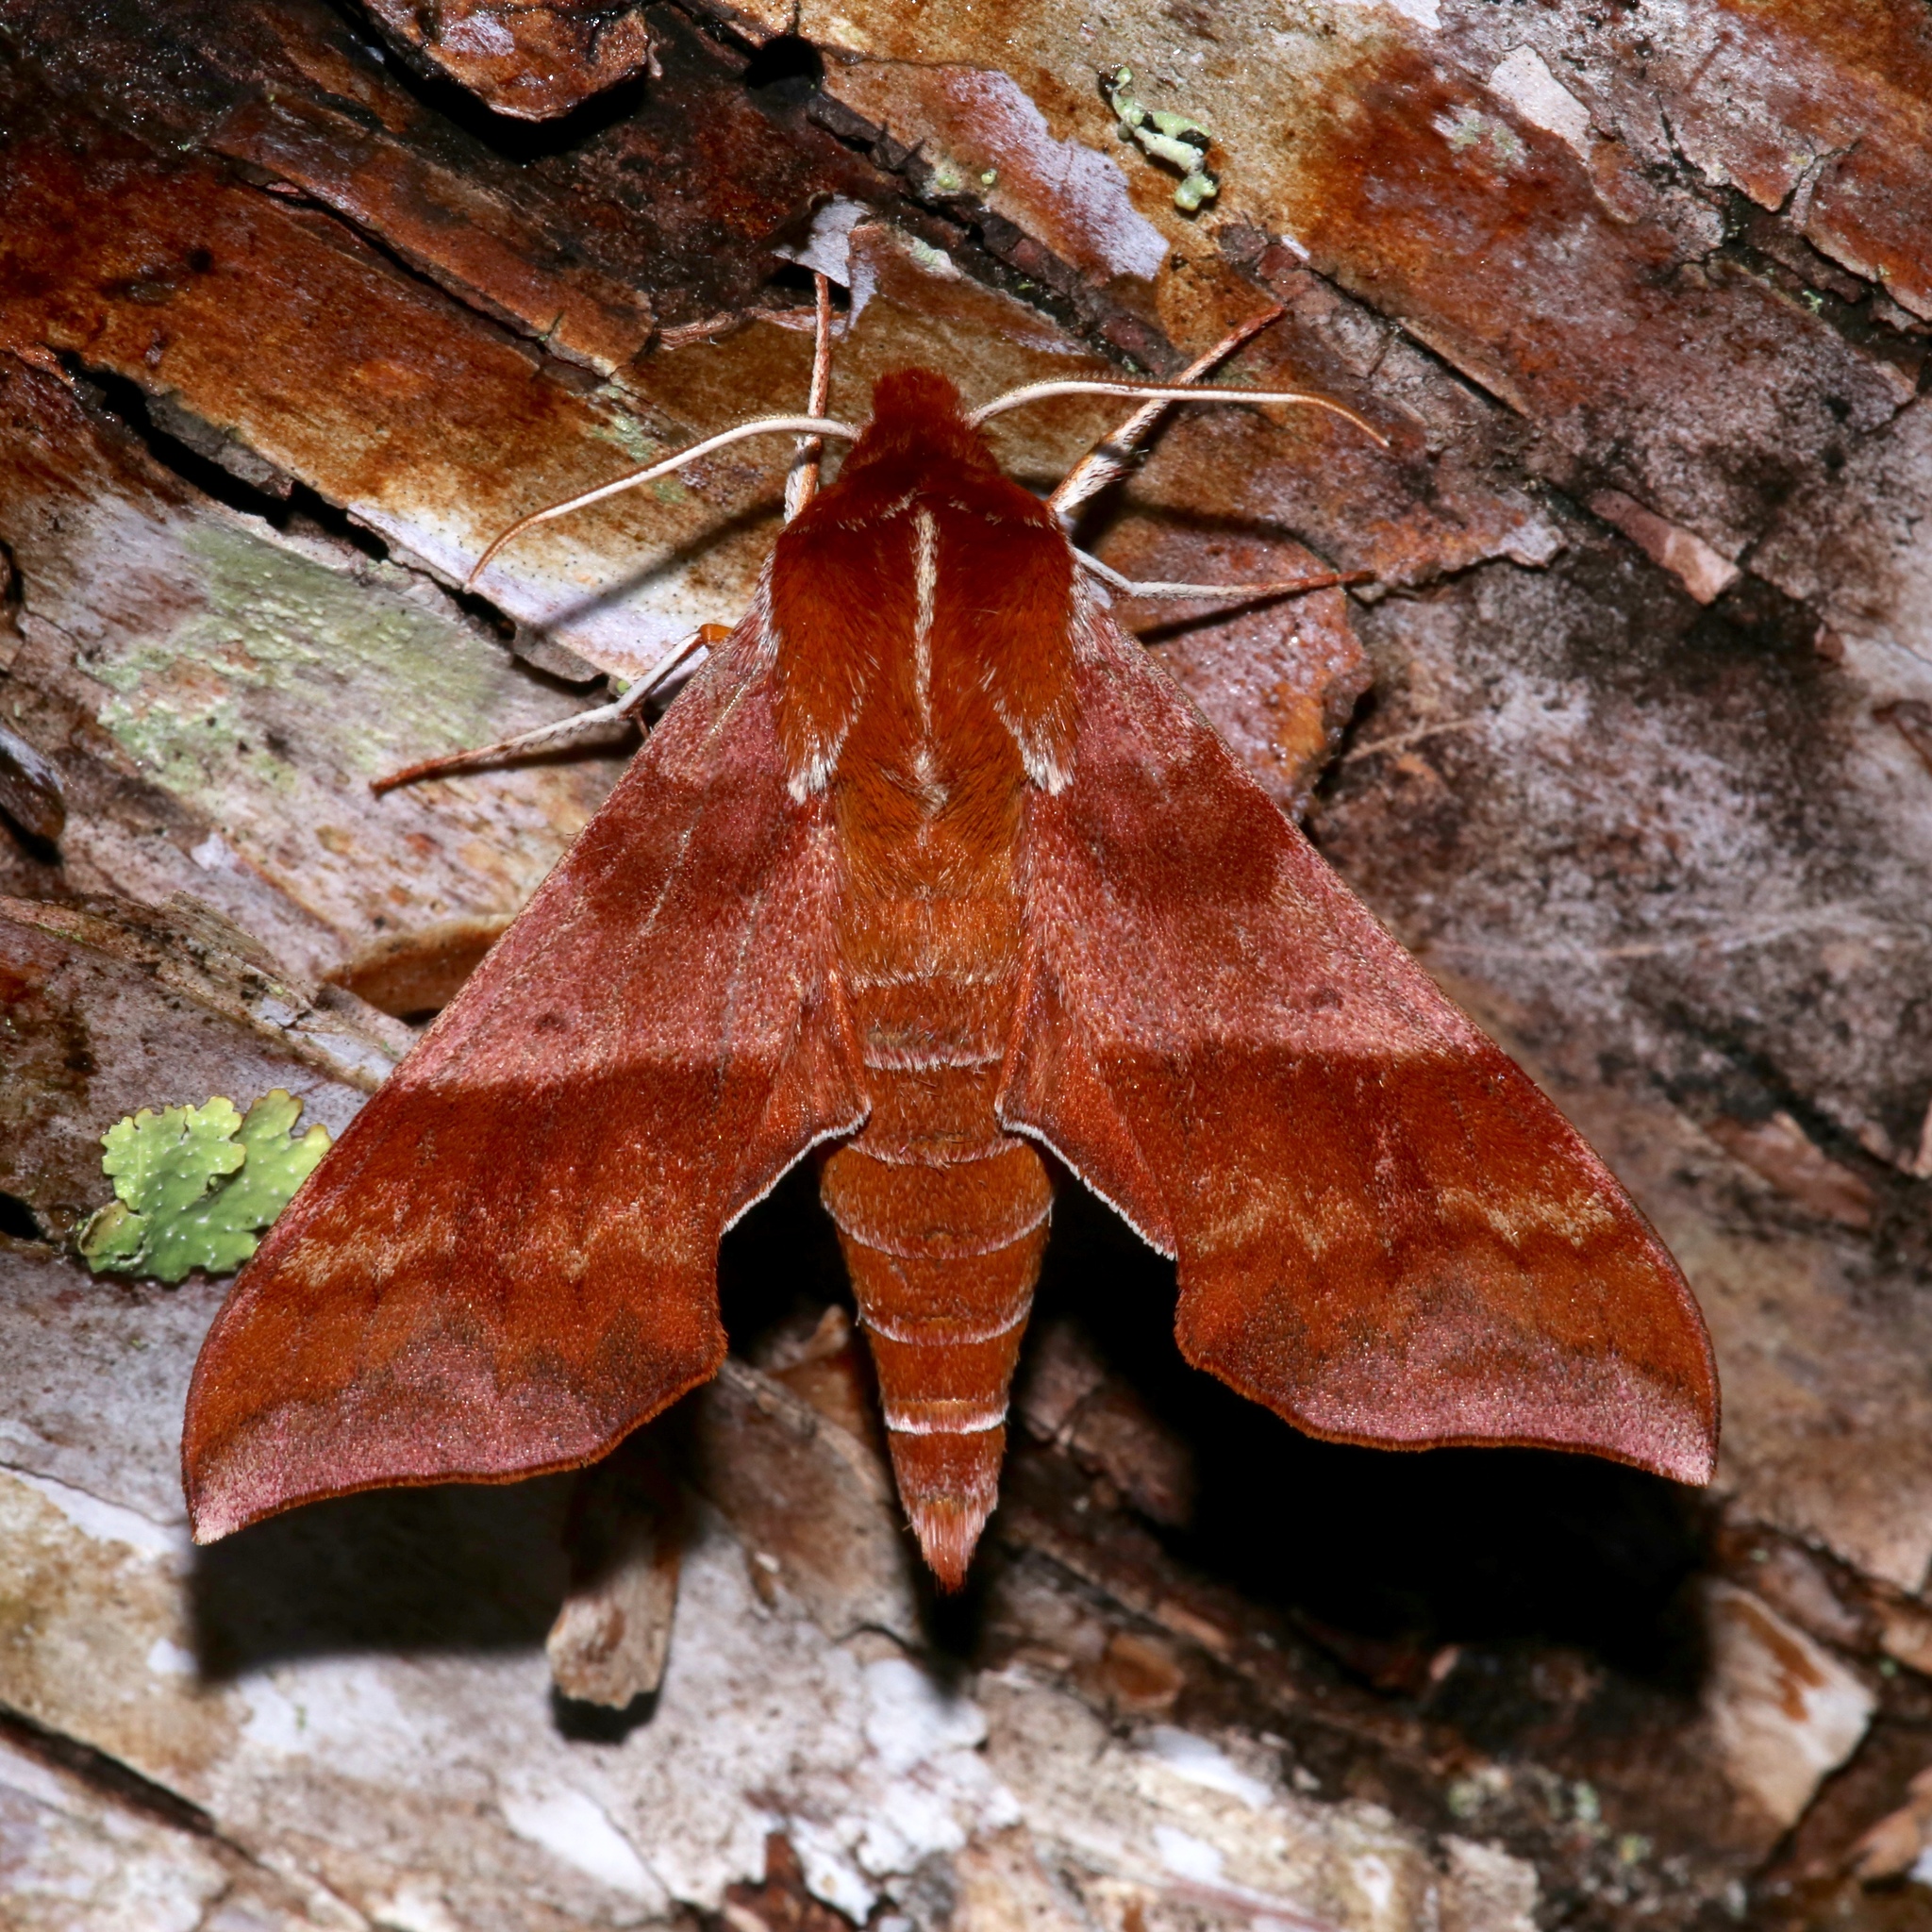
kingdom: Animalia
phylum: Arthropoda
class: Insecta
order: Lepidoptera
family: Sphingidae
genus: Darapsa
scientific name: Darapsa choerilus
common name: Azalea sphinx
